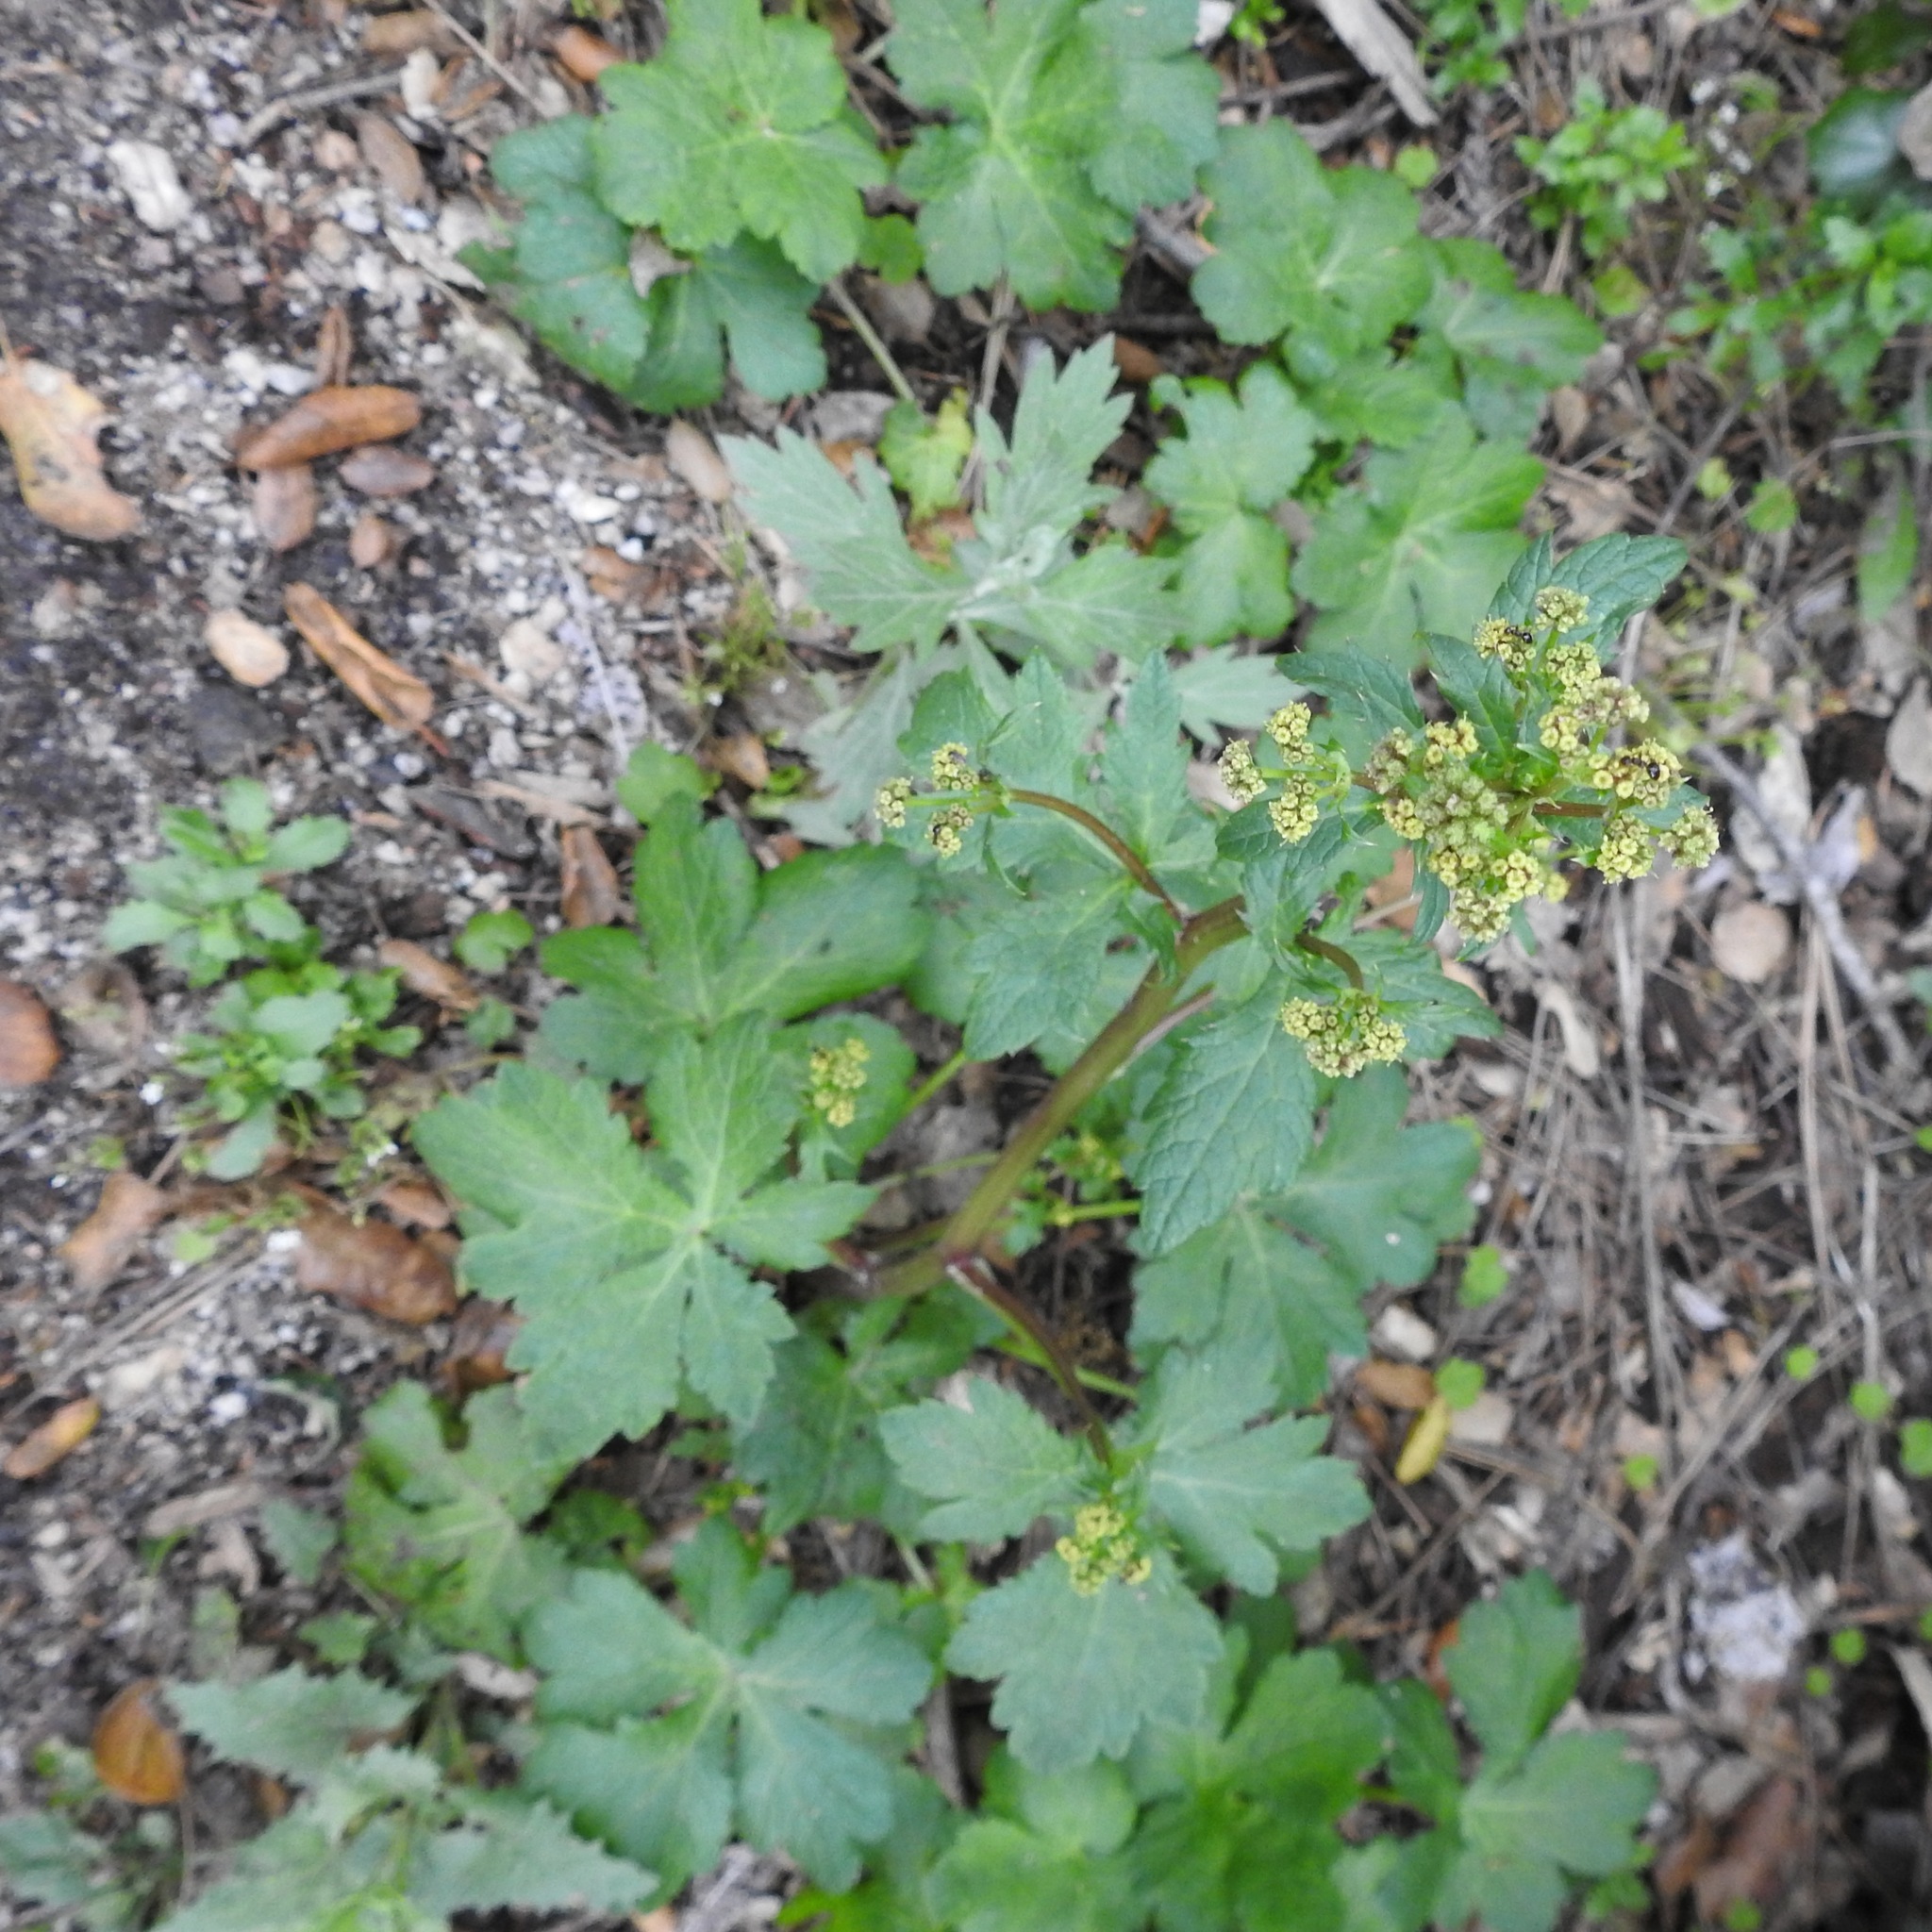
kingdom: Plantae
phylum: Tracheophyta
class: Magnoliopsida
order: Apiales
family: Apiaceae
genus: Sanicula
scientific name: Sanicula crassicaulis
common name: Western snakeroot
